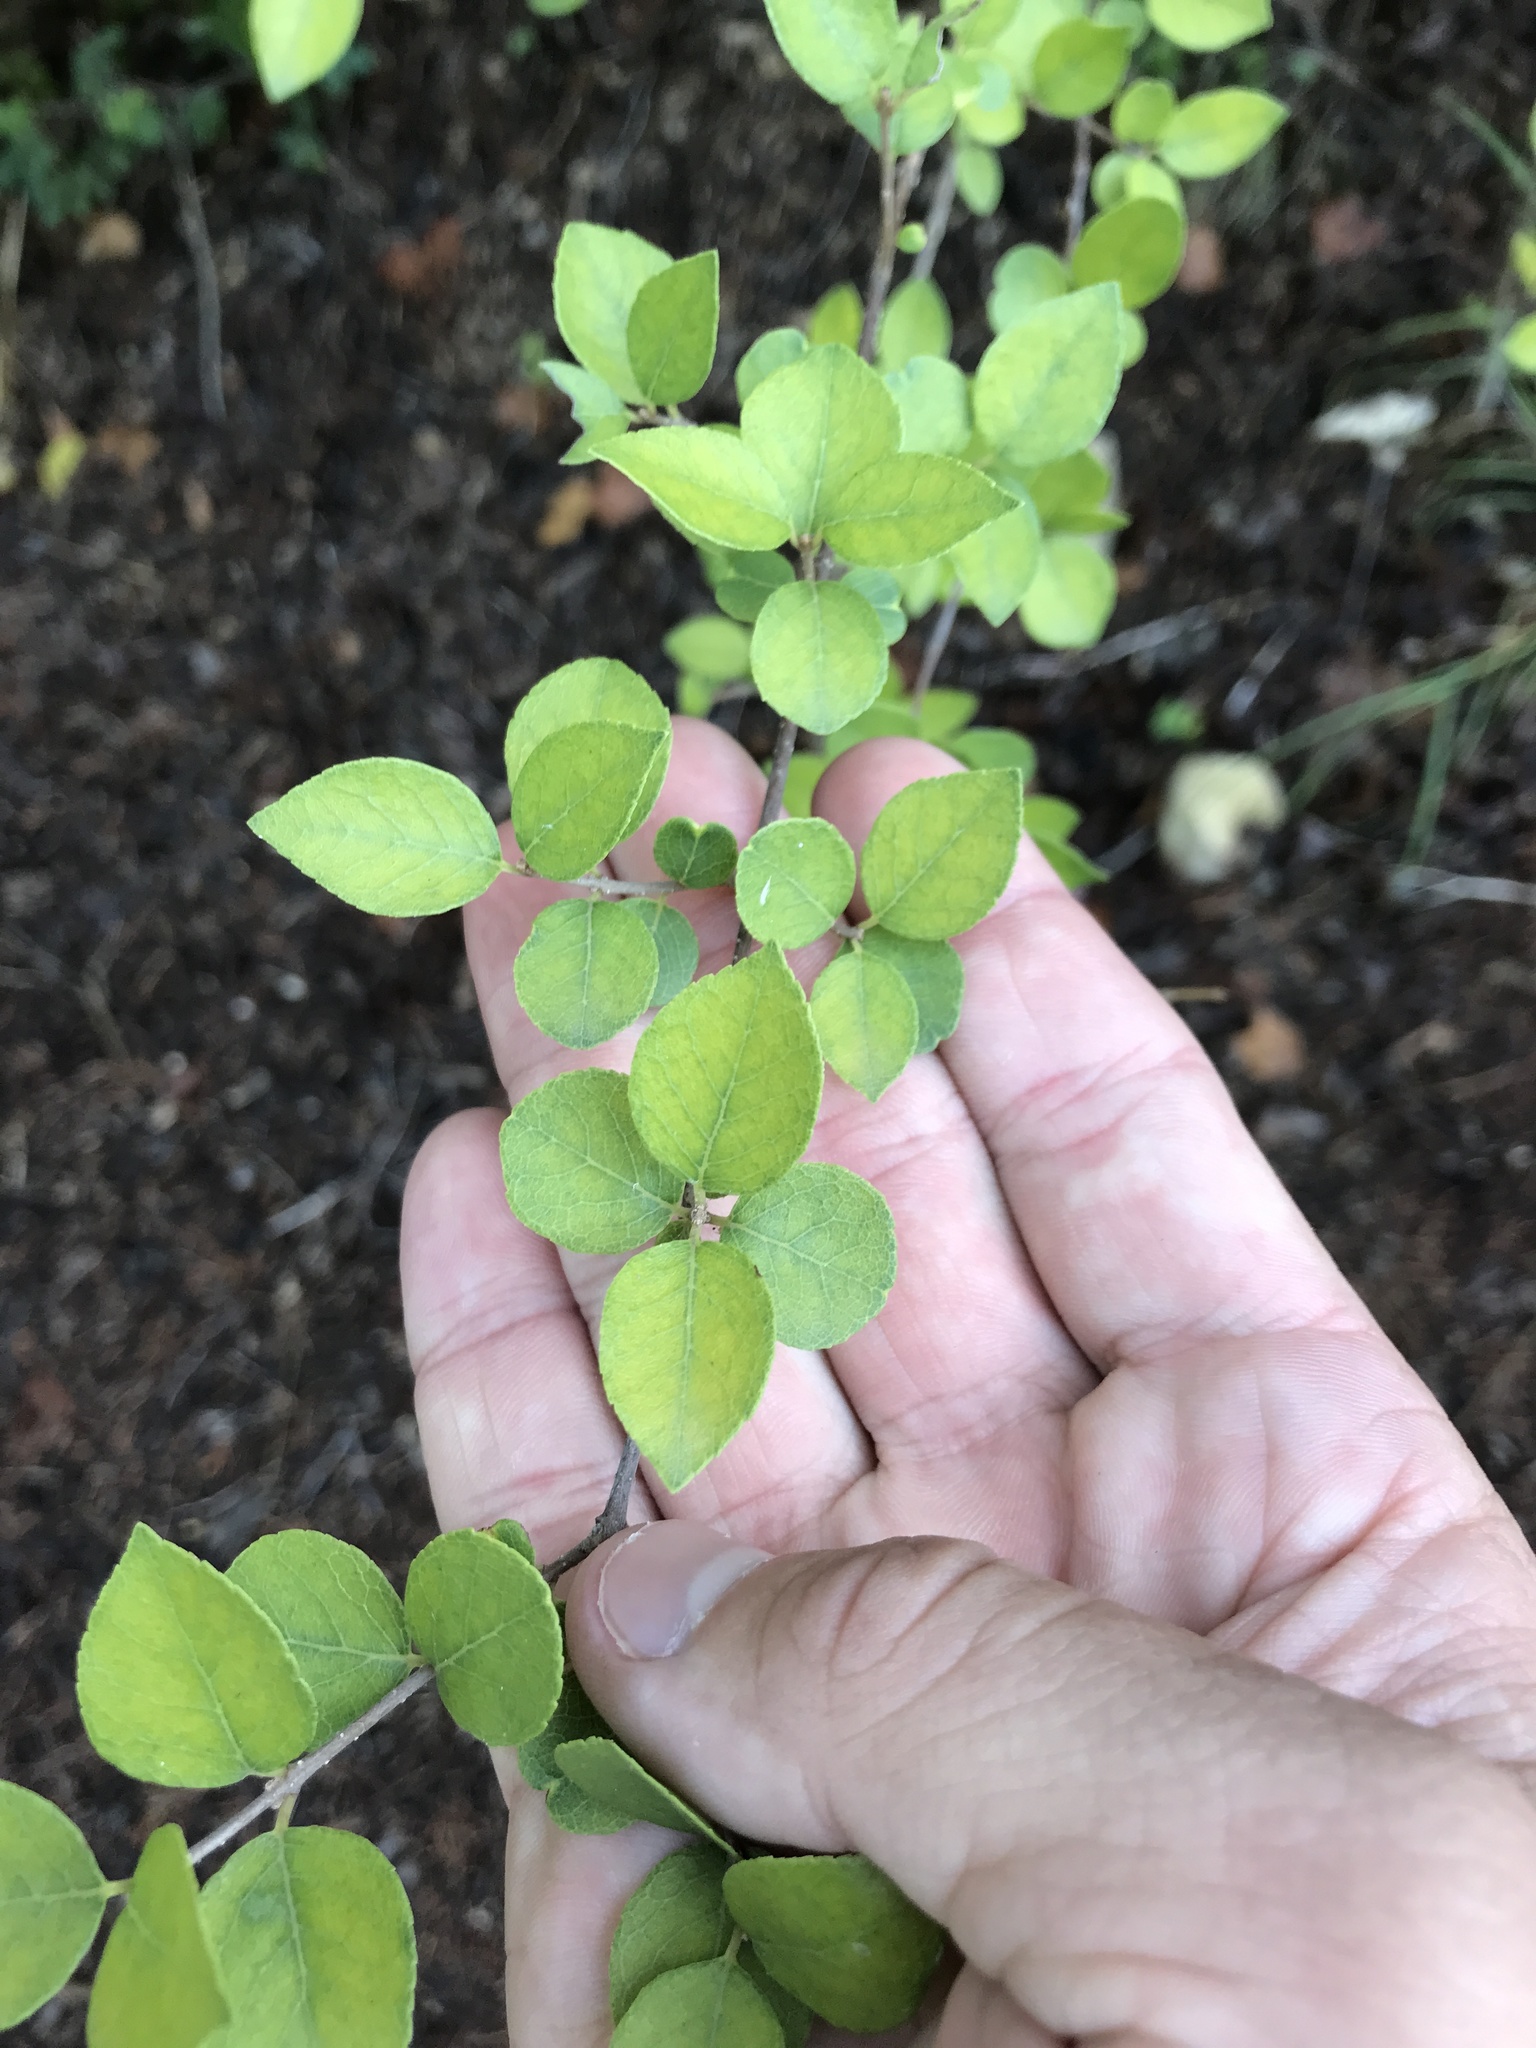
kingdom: Plantae
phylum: Tracheophyta
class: Magnoliopsida
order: Lamiales
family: Oleaceae
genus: Forestiera
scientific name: Forestiera reticulata
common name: Netleaf swamp-privet
